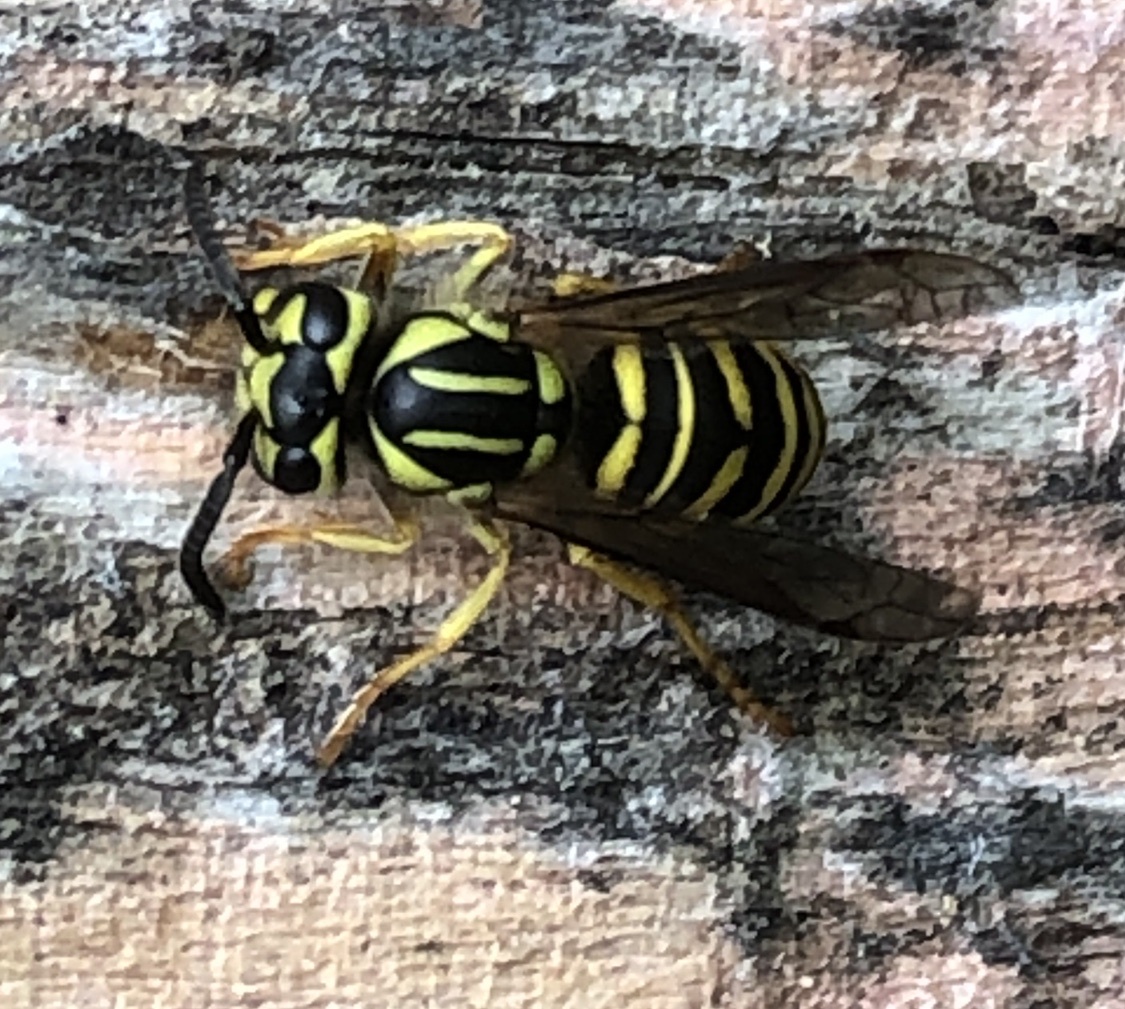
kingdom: Animalia
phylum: Arthropoda
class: Insecta
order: Hymenoptera
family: Vespidae
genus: Vespula
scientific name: Vespula squamosa
